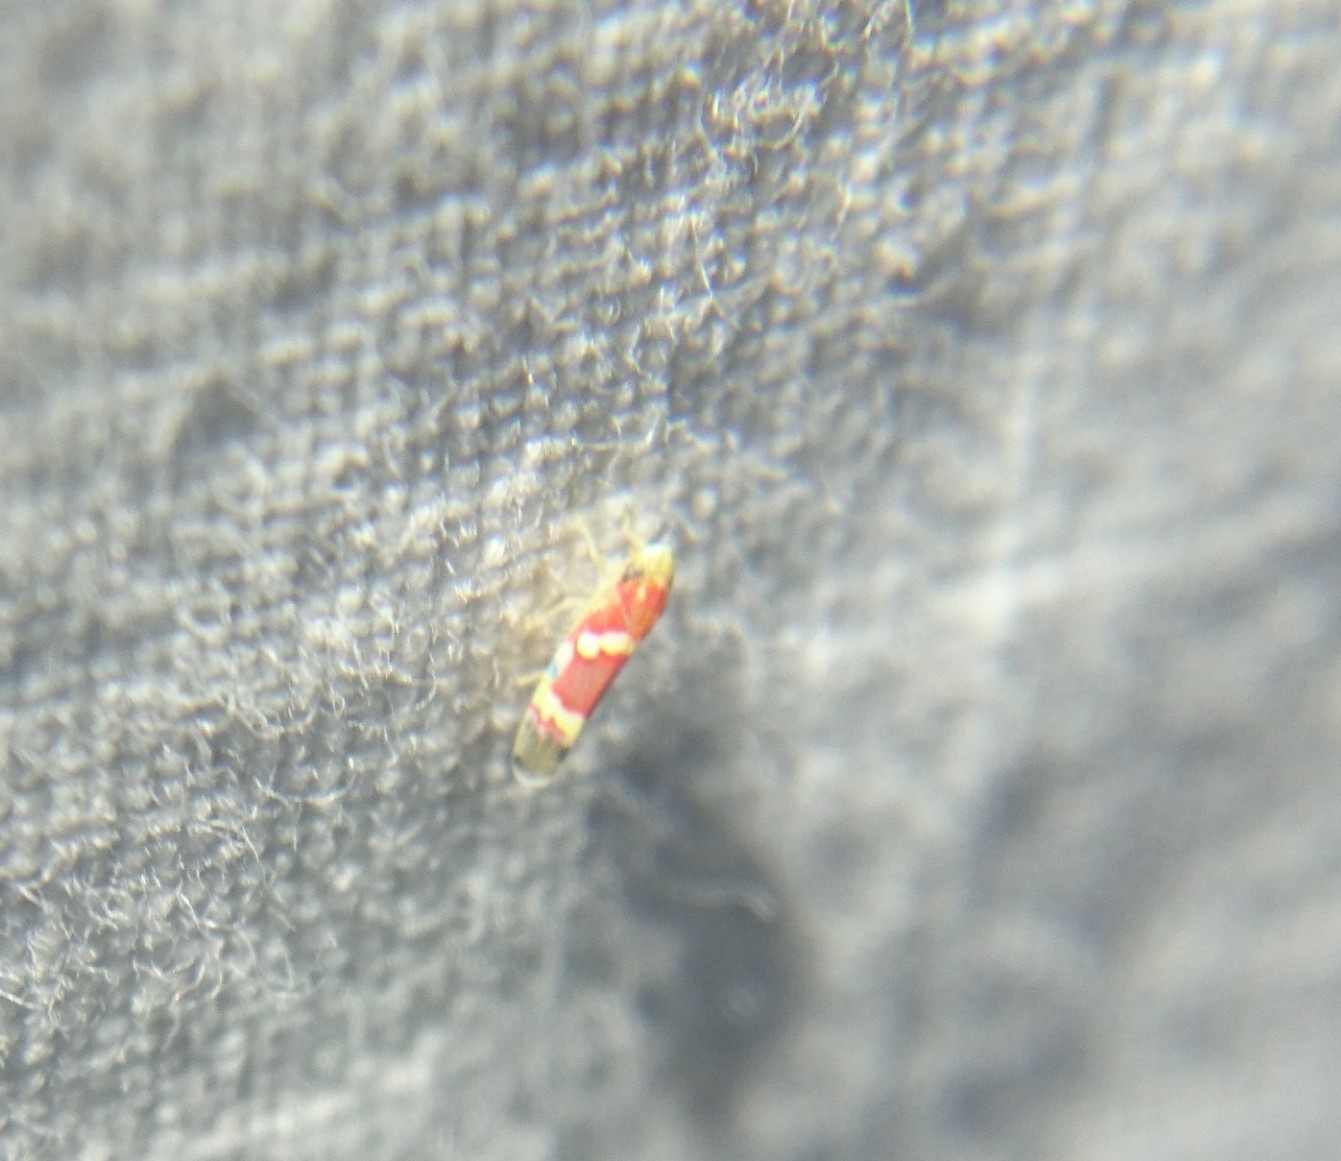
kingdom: Animalia
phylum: Arthropoda
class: Insecta
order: Hemiptera
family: Cicadellidae
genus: Erythroneura
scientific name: Erythroneura vitis
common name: Grapevine leafhopper
